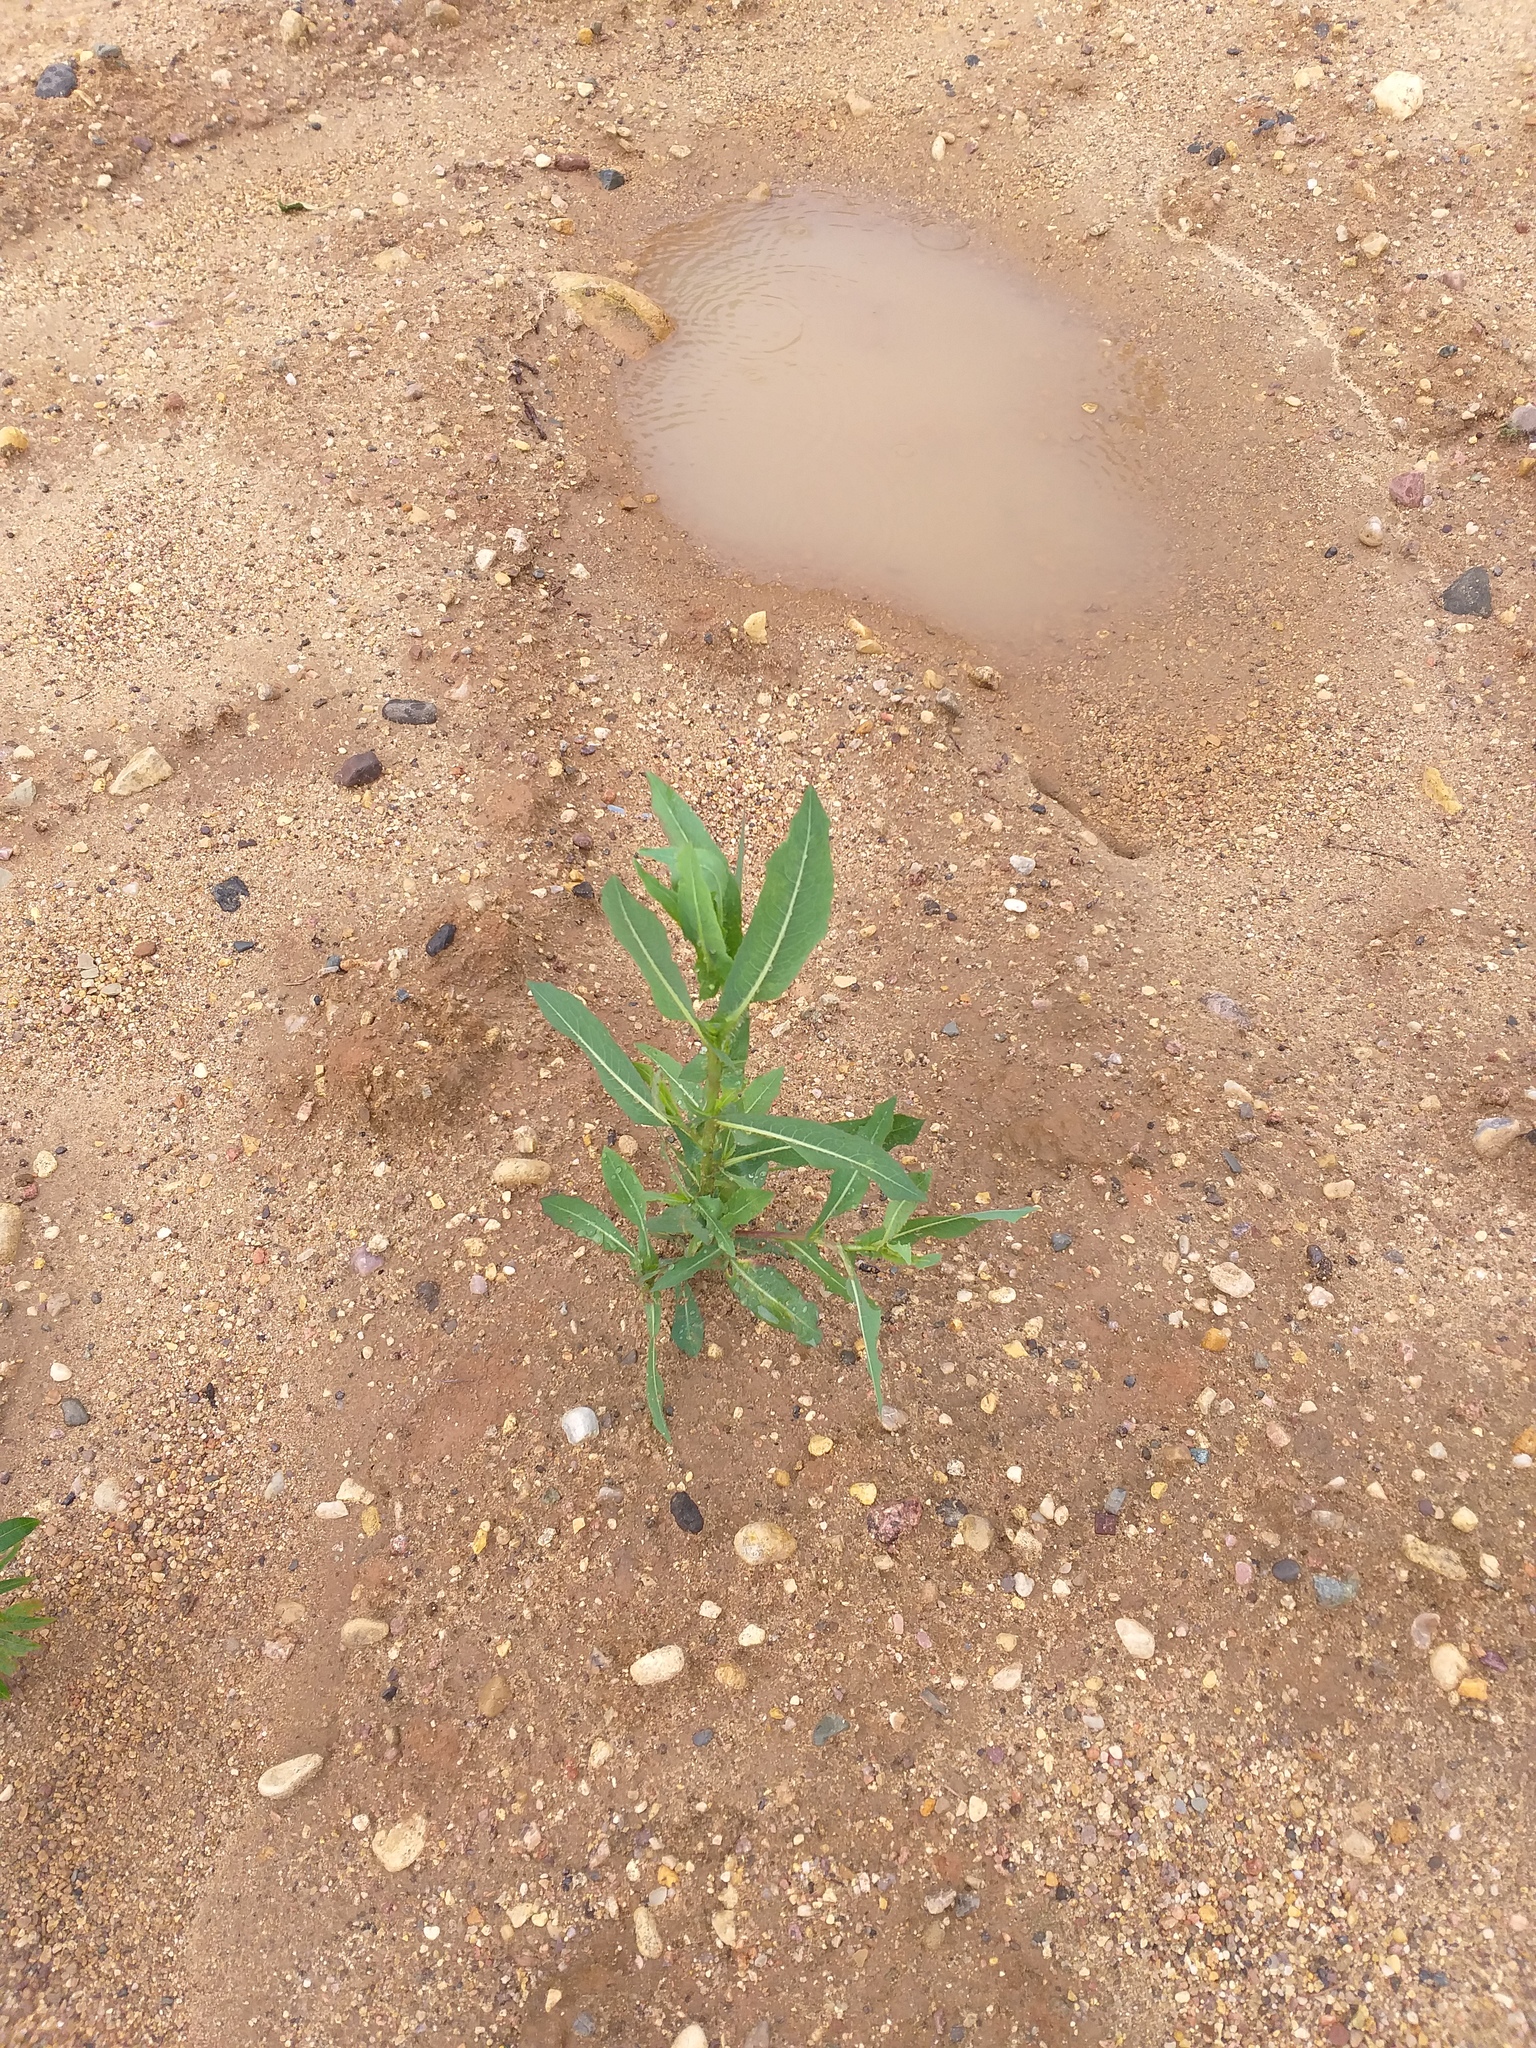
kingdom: Plantae
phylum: Tracheophyta
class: Magnoliopsida
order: Asterales
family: Asteraceae
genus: Lactuca
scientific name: Lactuca serriola
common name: Prickly lettuce
